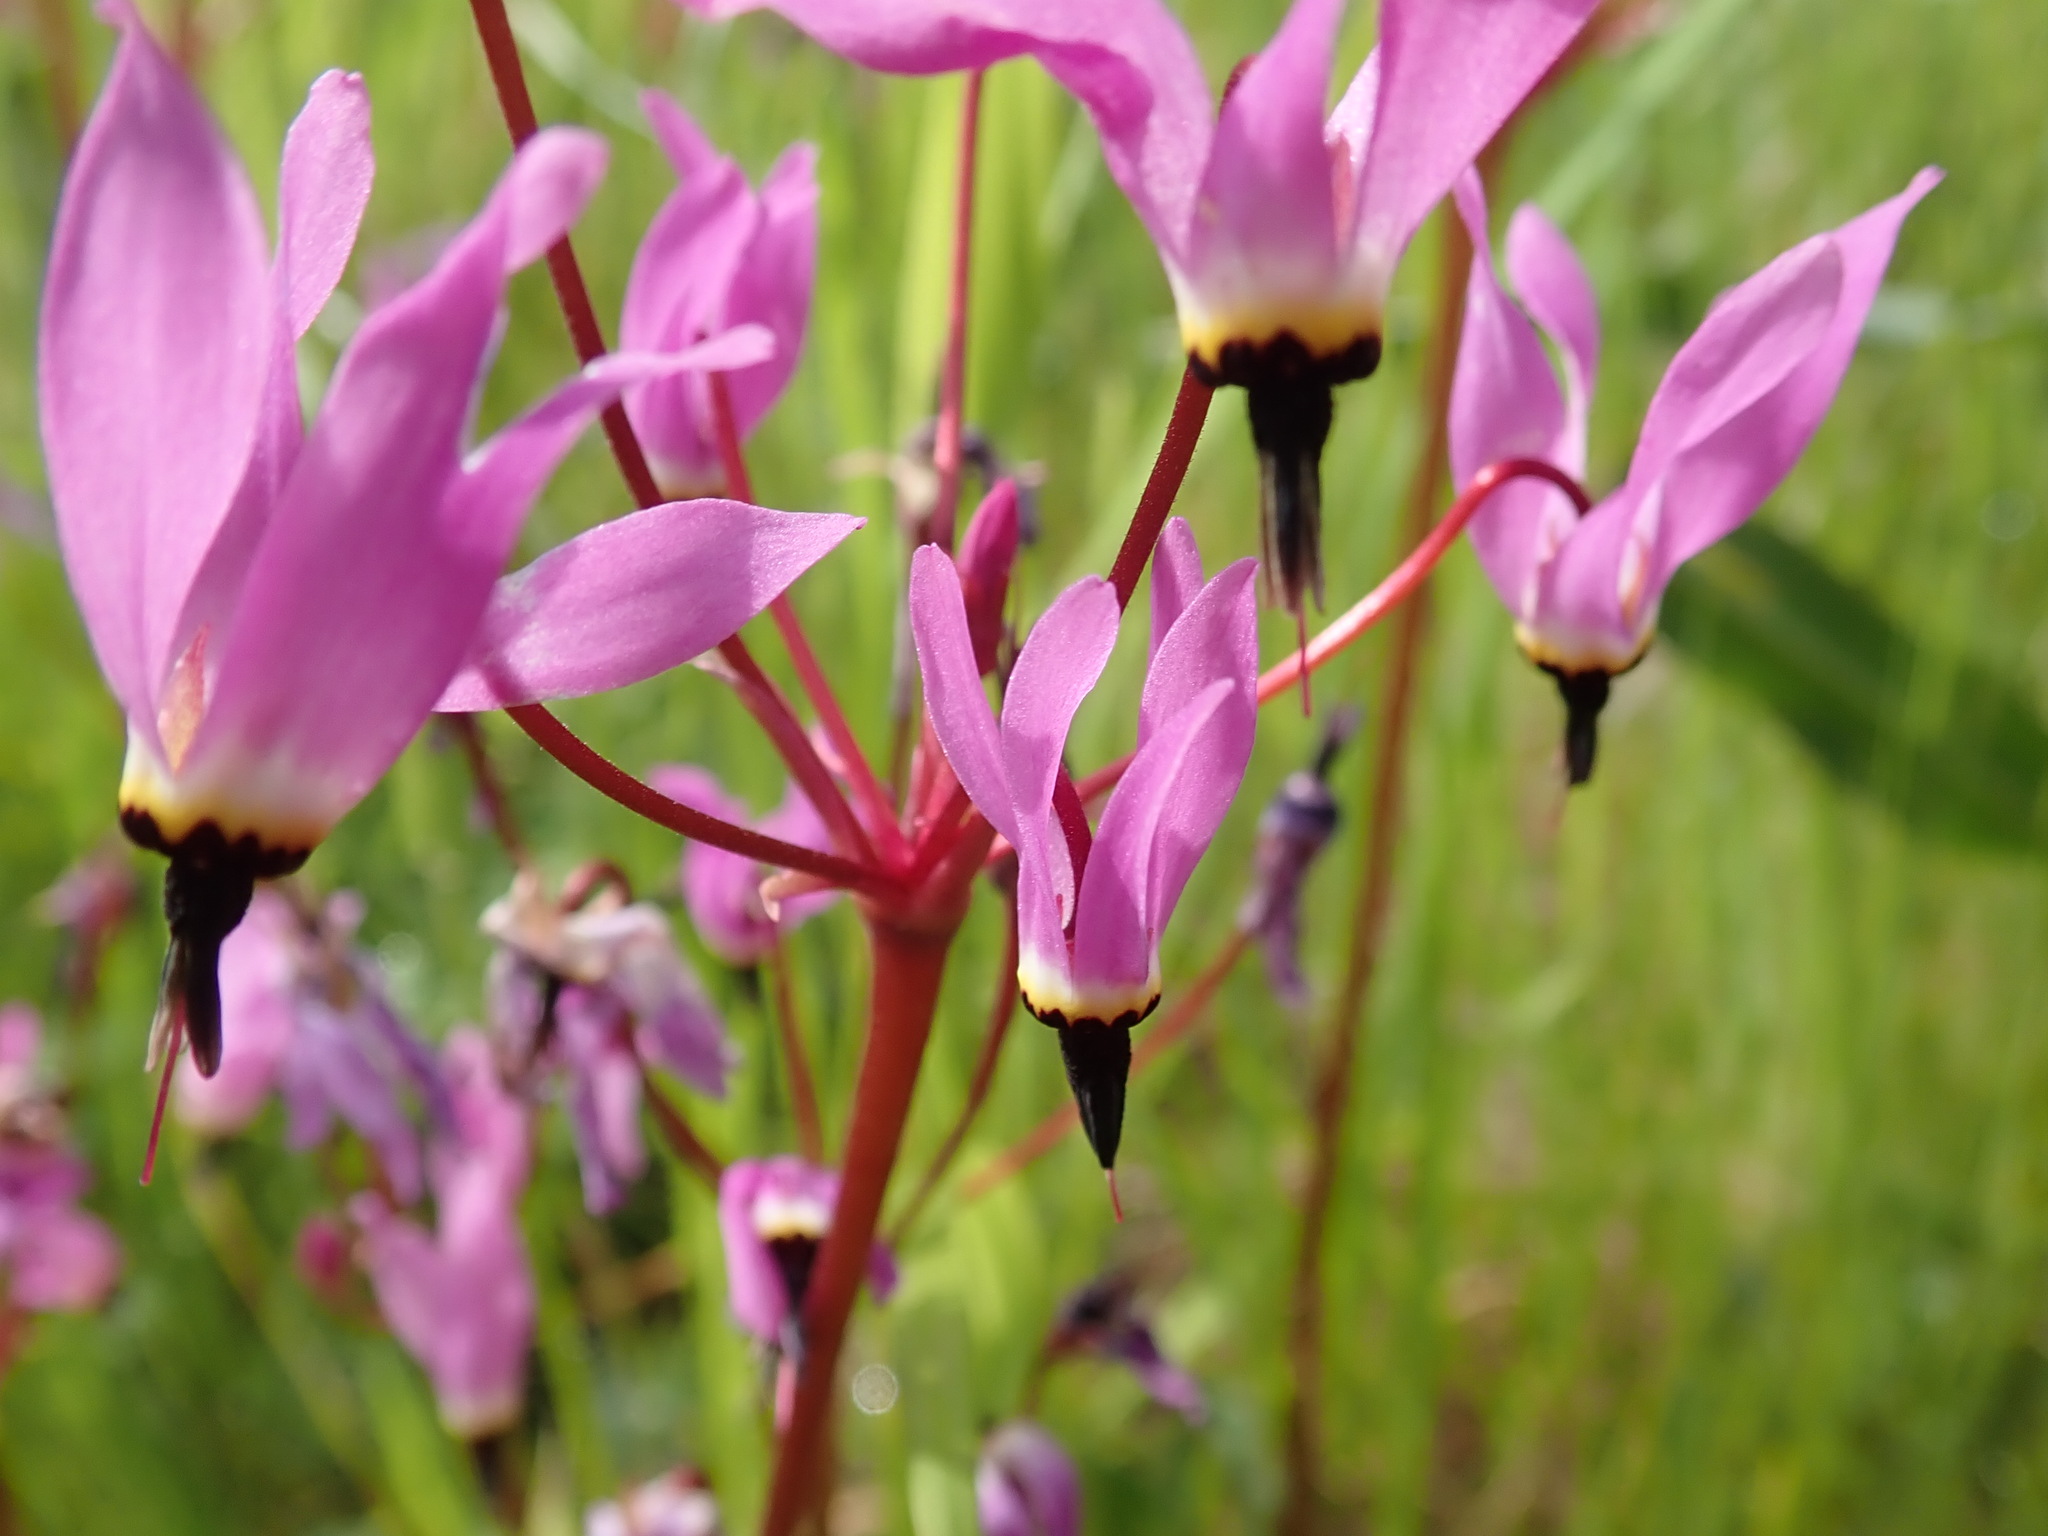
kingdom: Plantae
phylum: Tracheophyta
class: Magnoliopsida
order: Ericales
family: Primulaceae
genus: Dodecatheon
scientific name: Dodecatheon hendersonii
